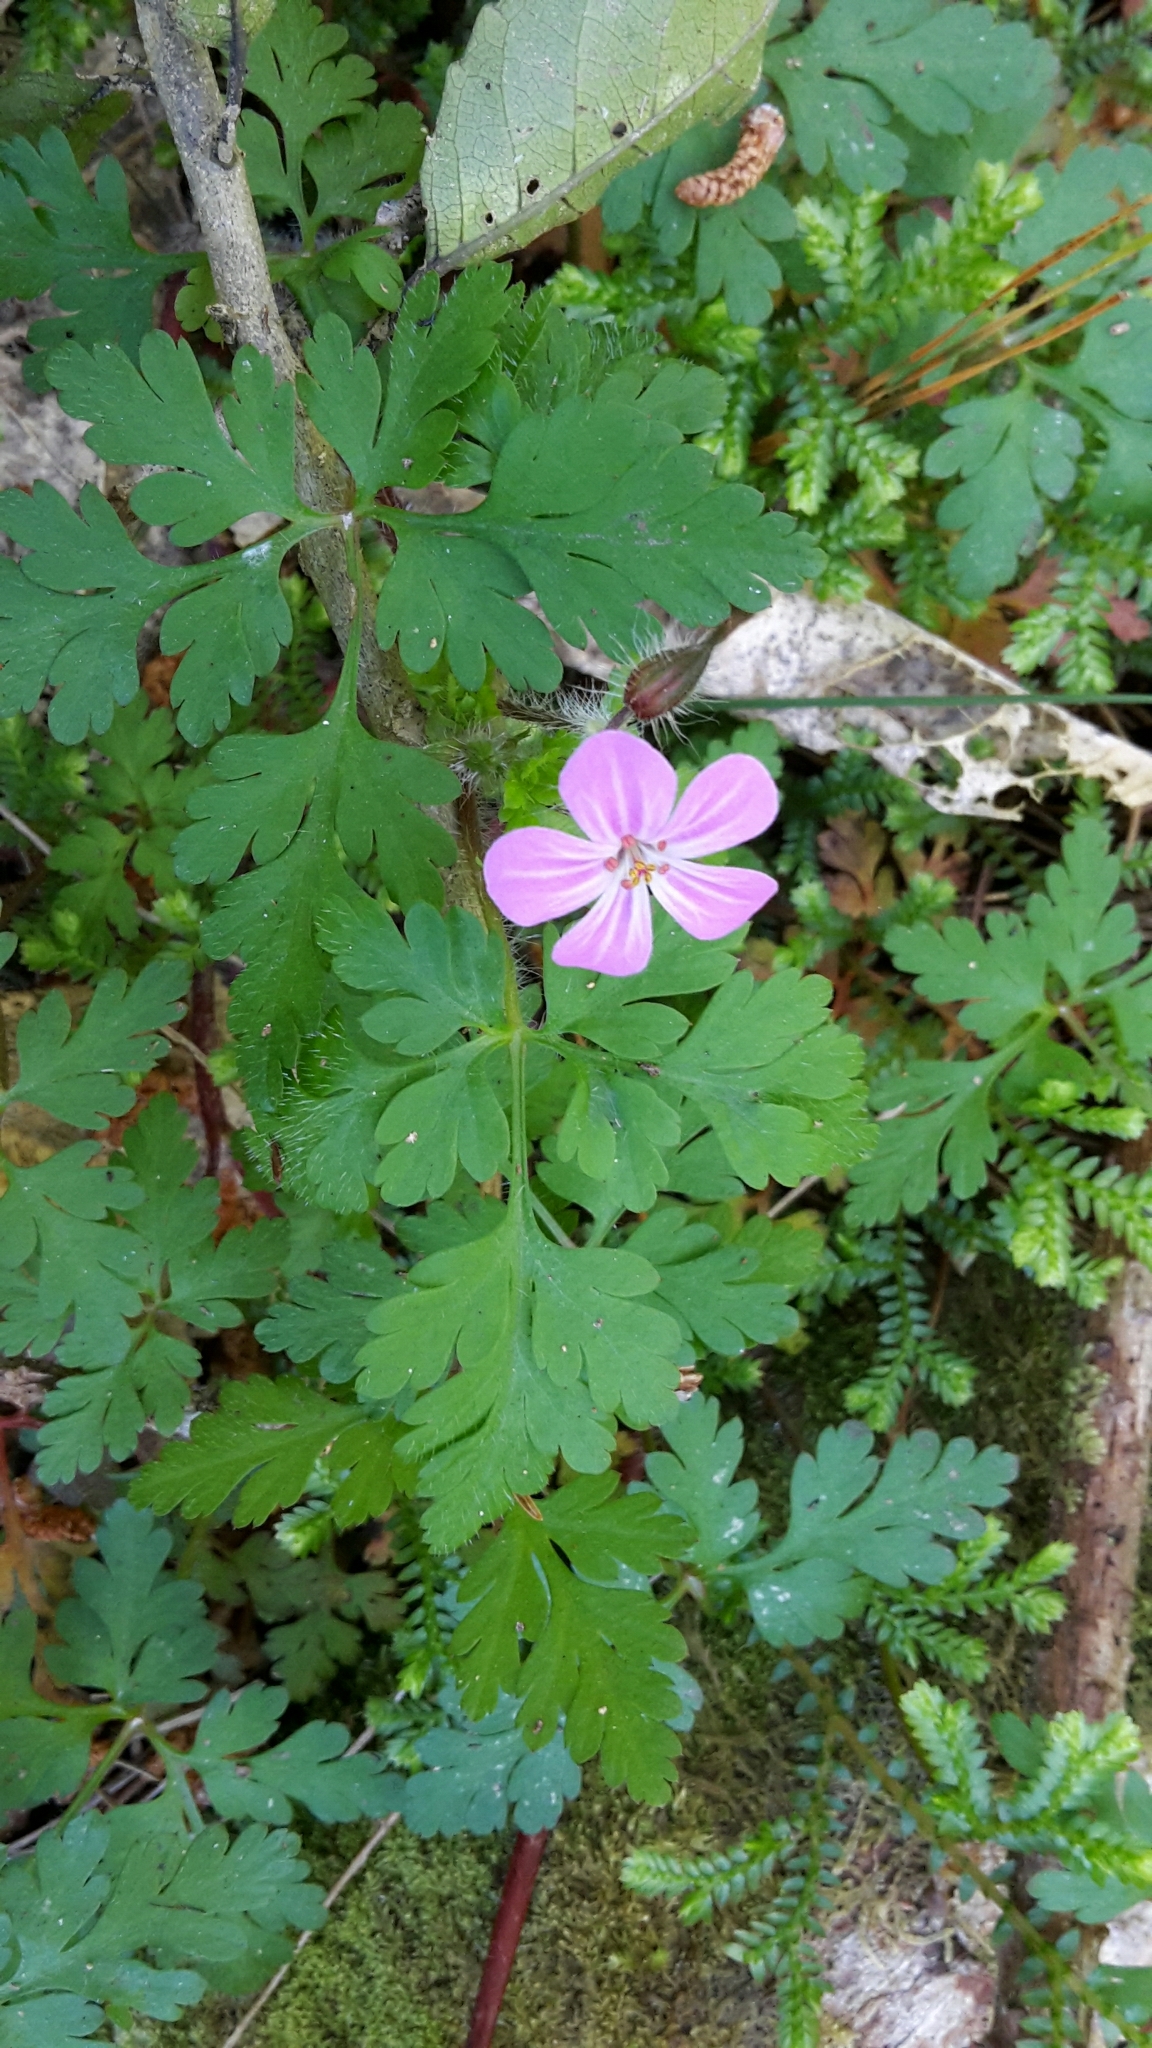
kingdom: Plantae
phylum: Tracheophyta
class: Magnoliopsida
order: Geraniales
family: Geraniaceae
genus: Geranium
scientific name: Geranium robertianum
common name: Herb-robert
